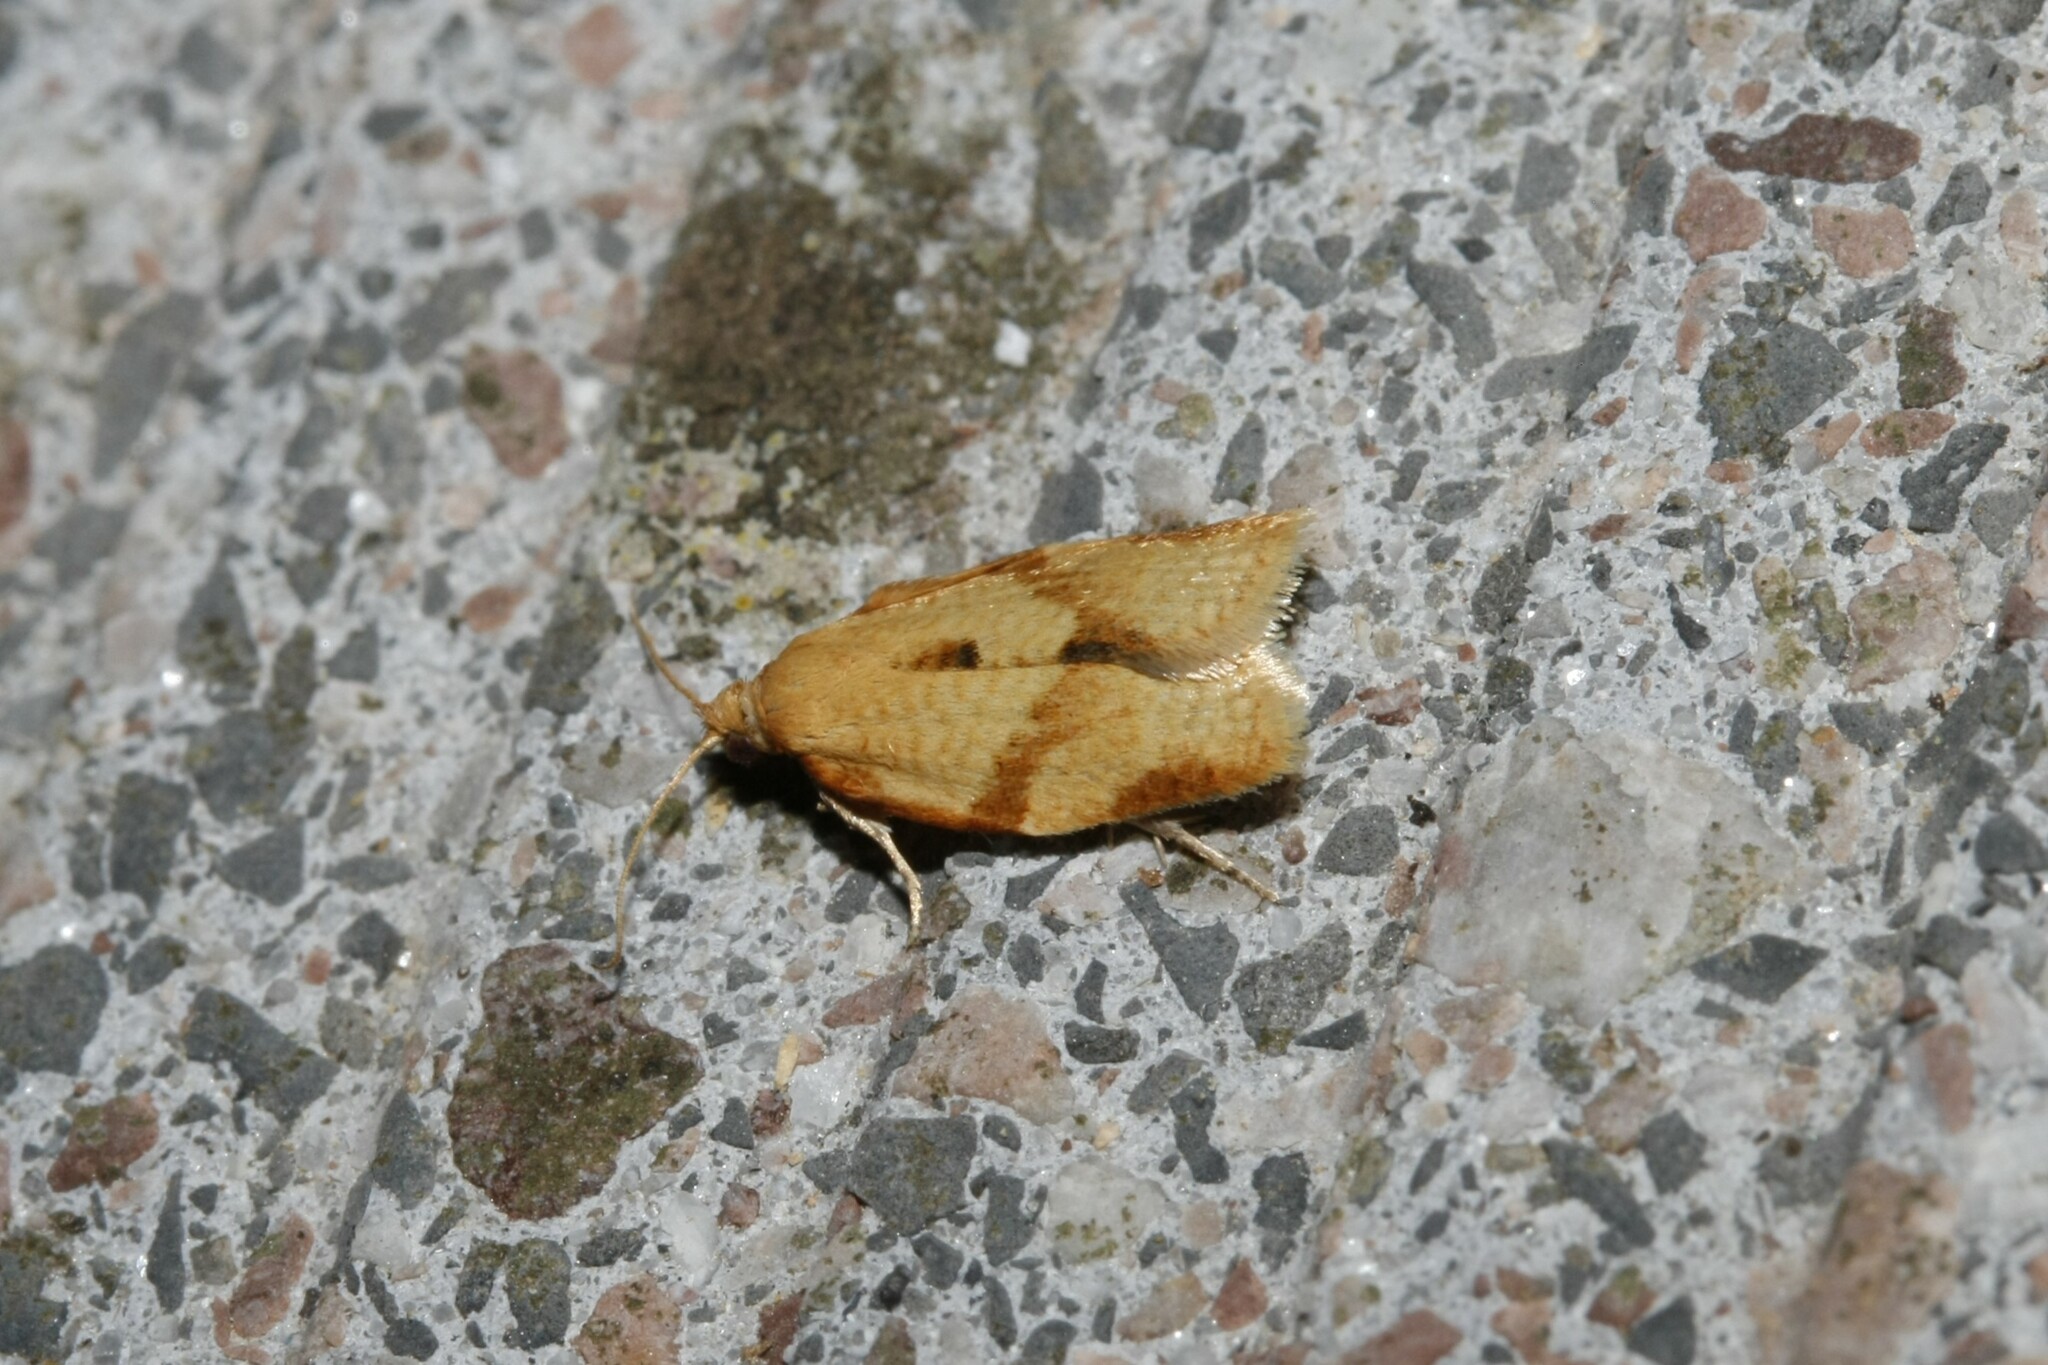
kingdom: Animalia
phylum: Arthropoda
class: Insecta
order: Lepidoptera
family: Tortricidae
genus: Clepsis
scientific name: Clepsis consimilana
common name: Privet tortrix
